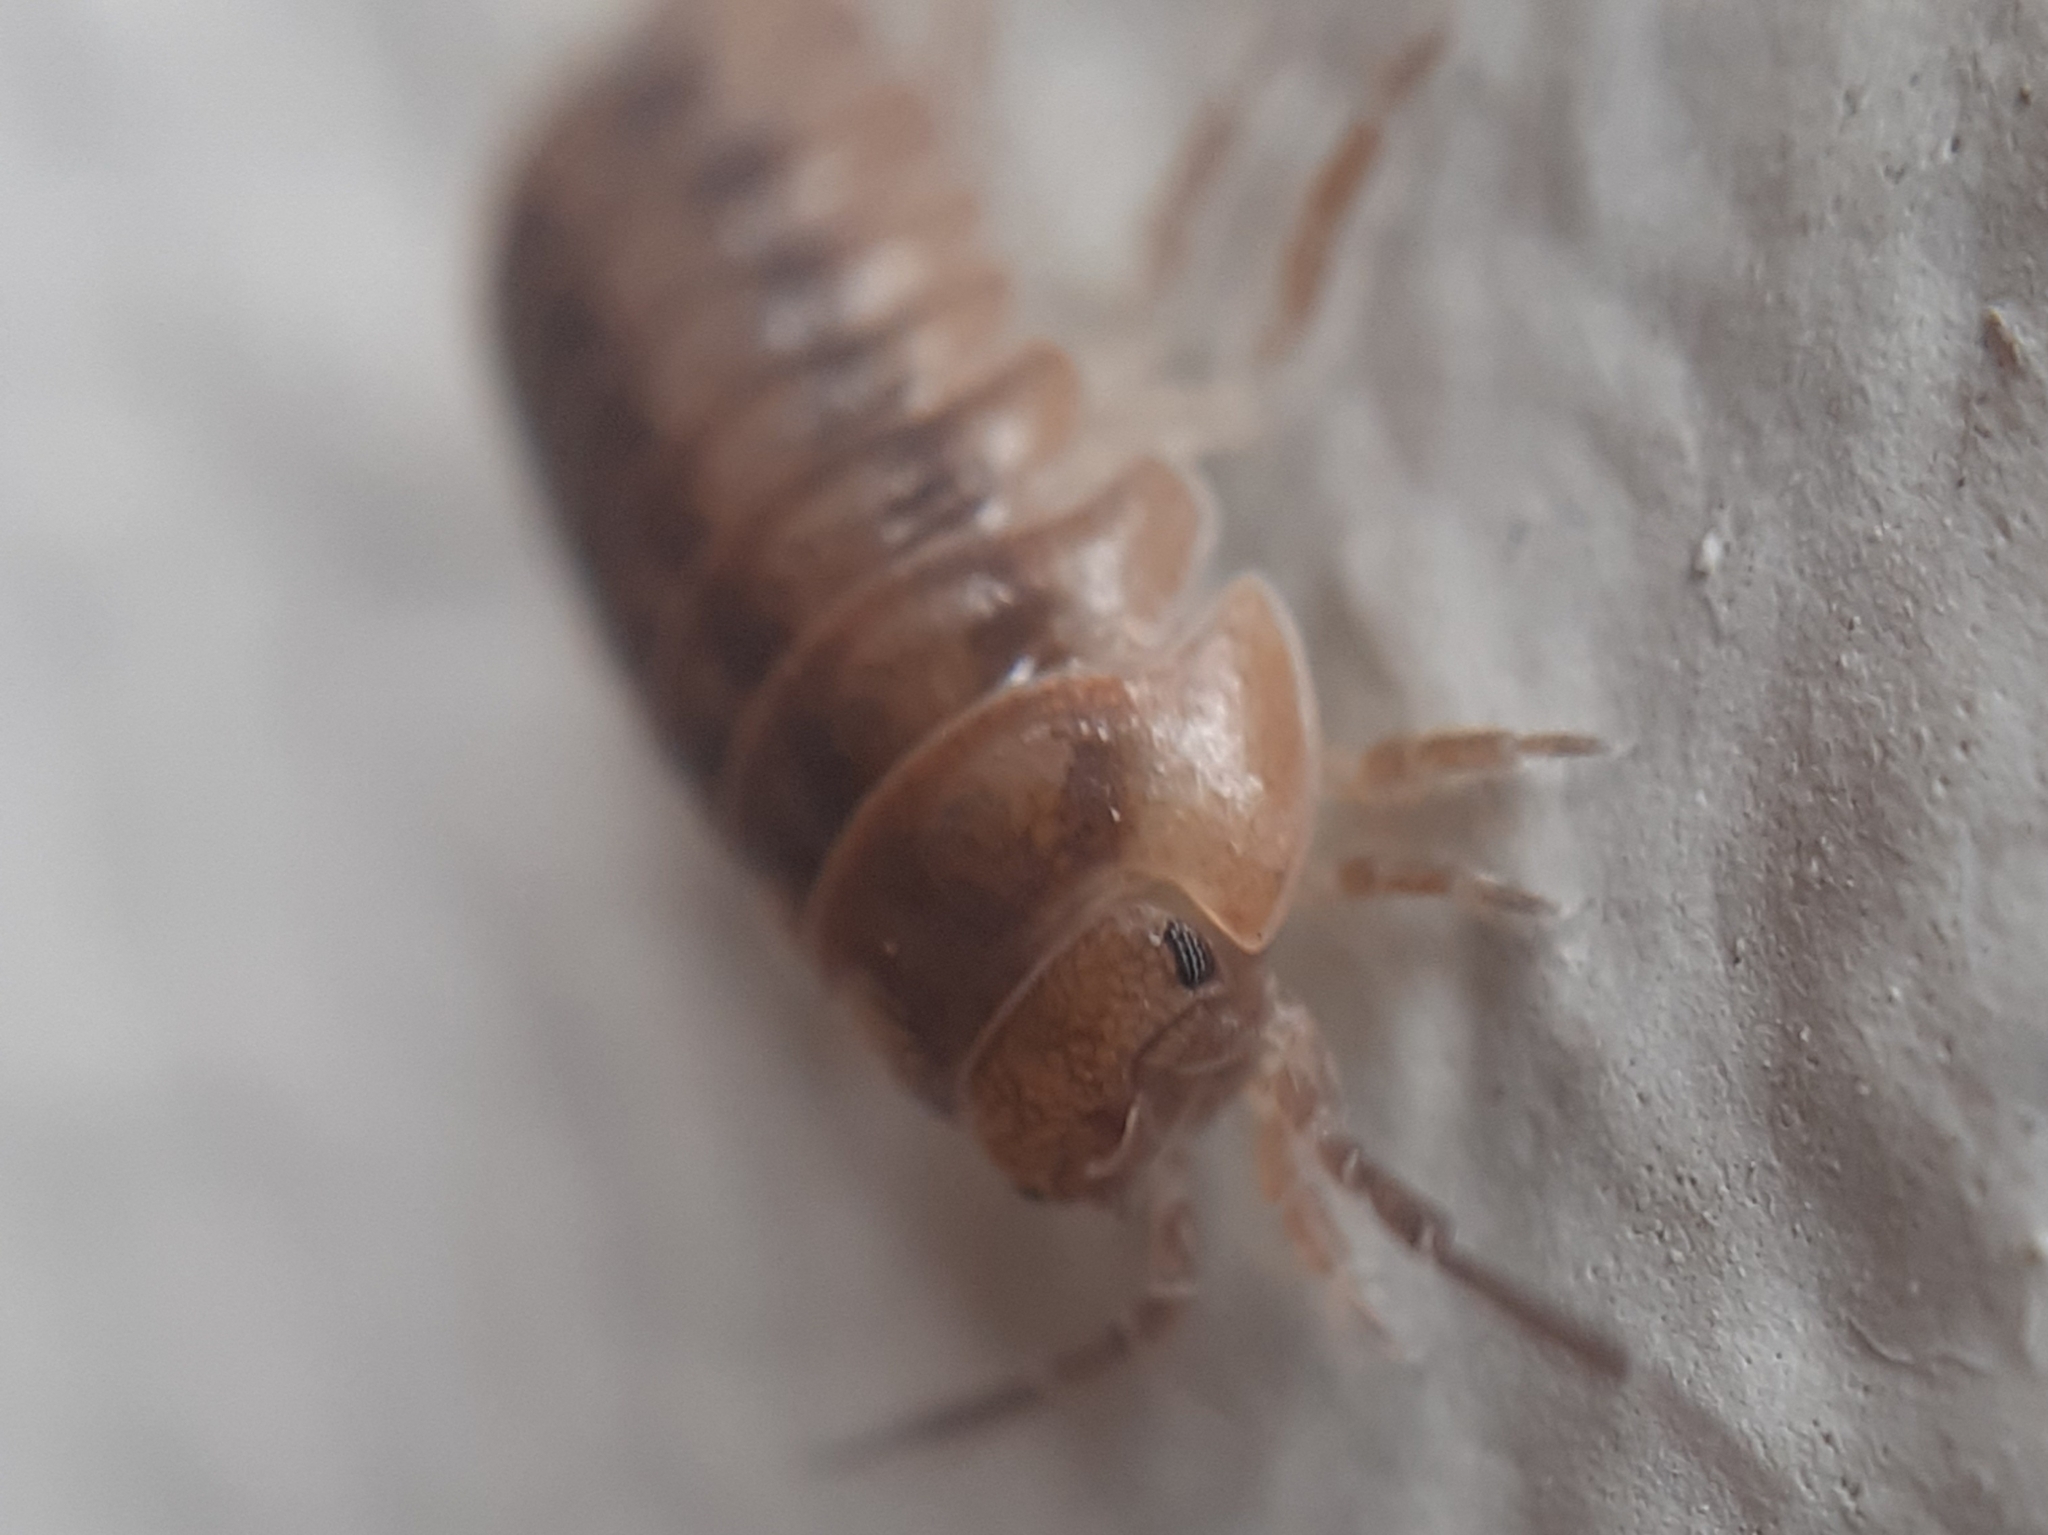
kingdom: Animalia
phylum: Arthropoda
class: Malacostraca
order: Isopoda
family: Armadillidiidae
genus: Armadillidium
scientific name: Armadillidium nasatum
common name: Isopod
